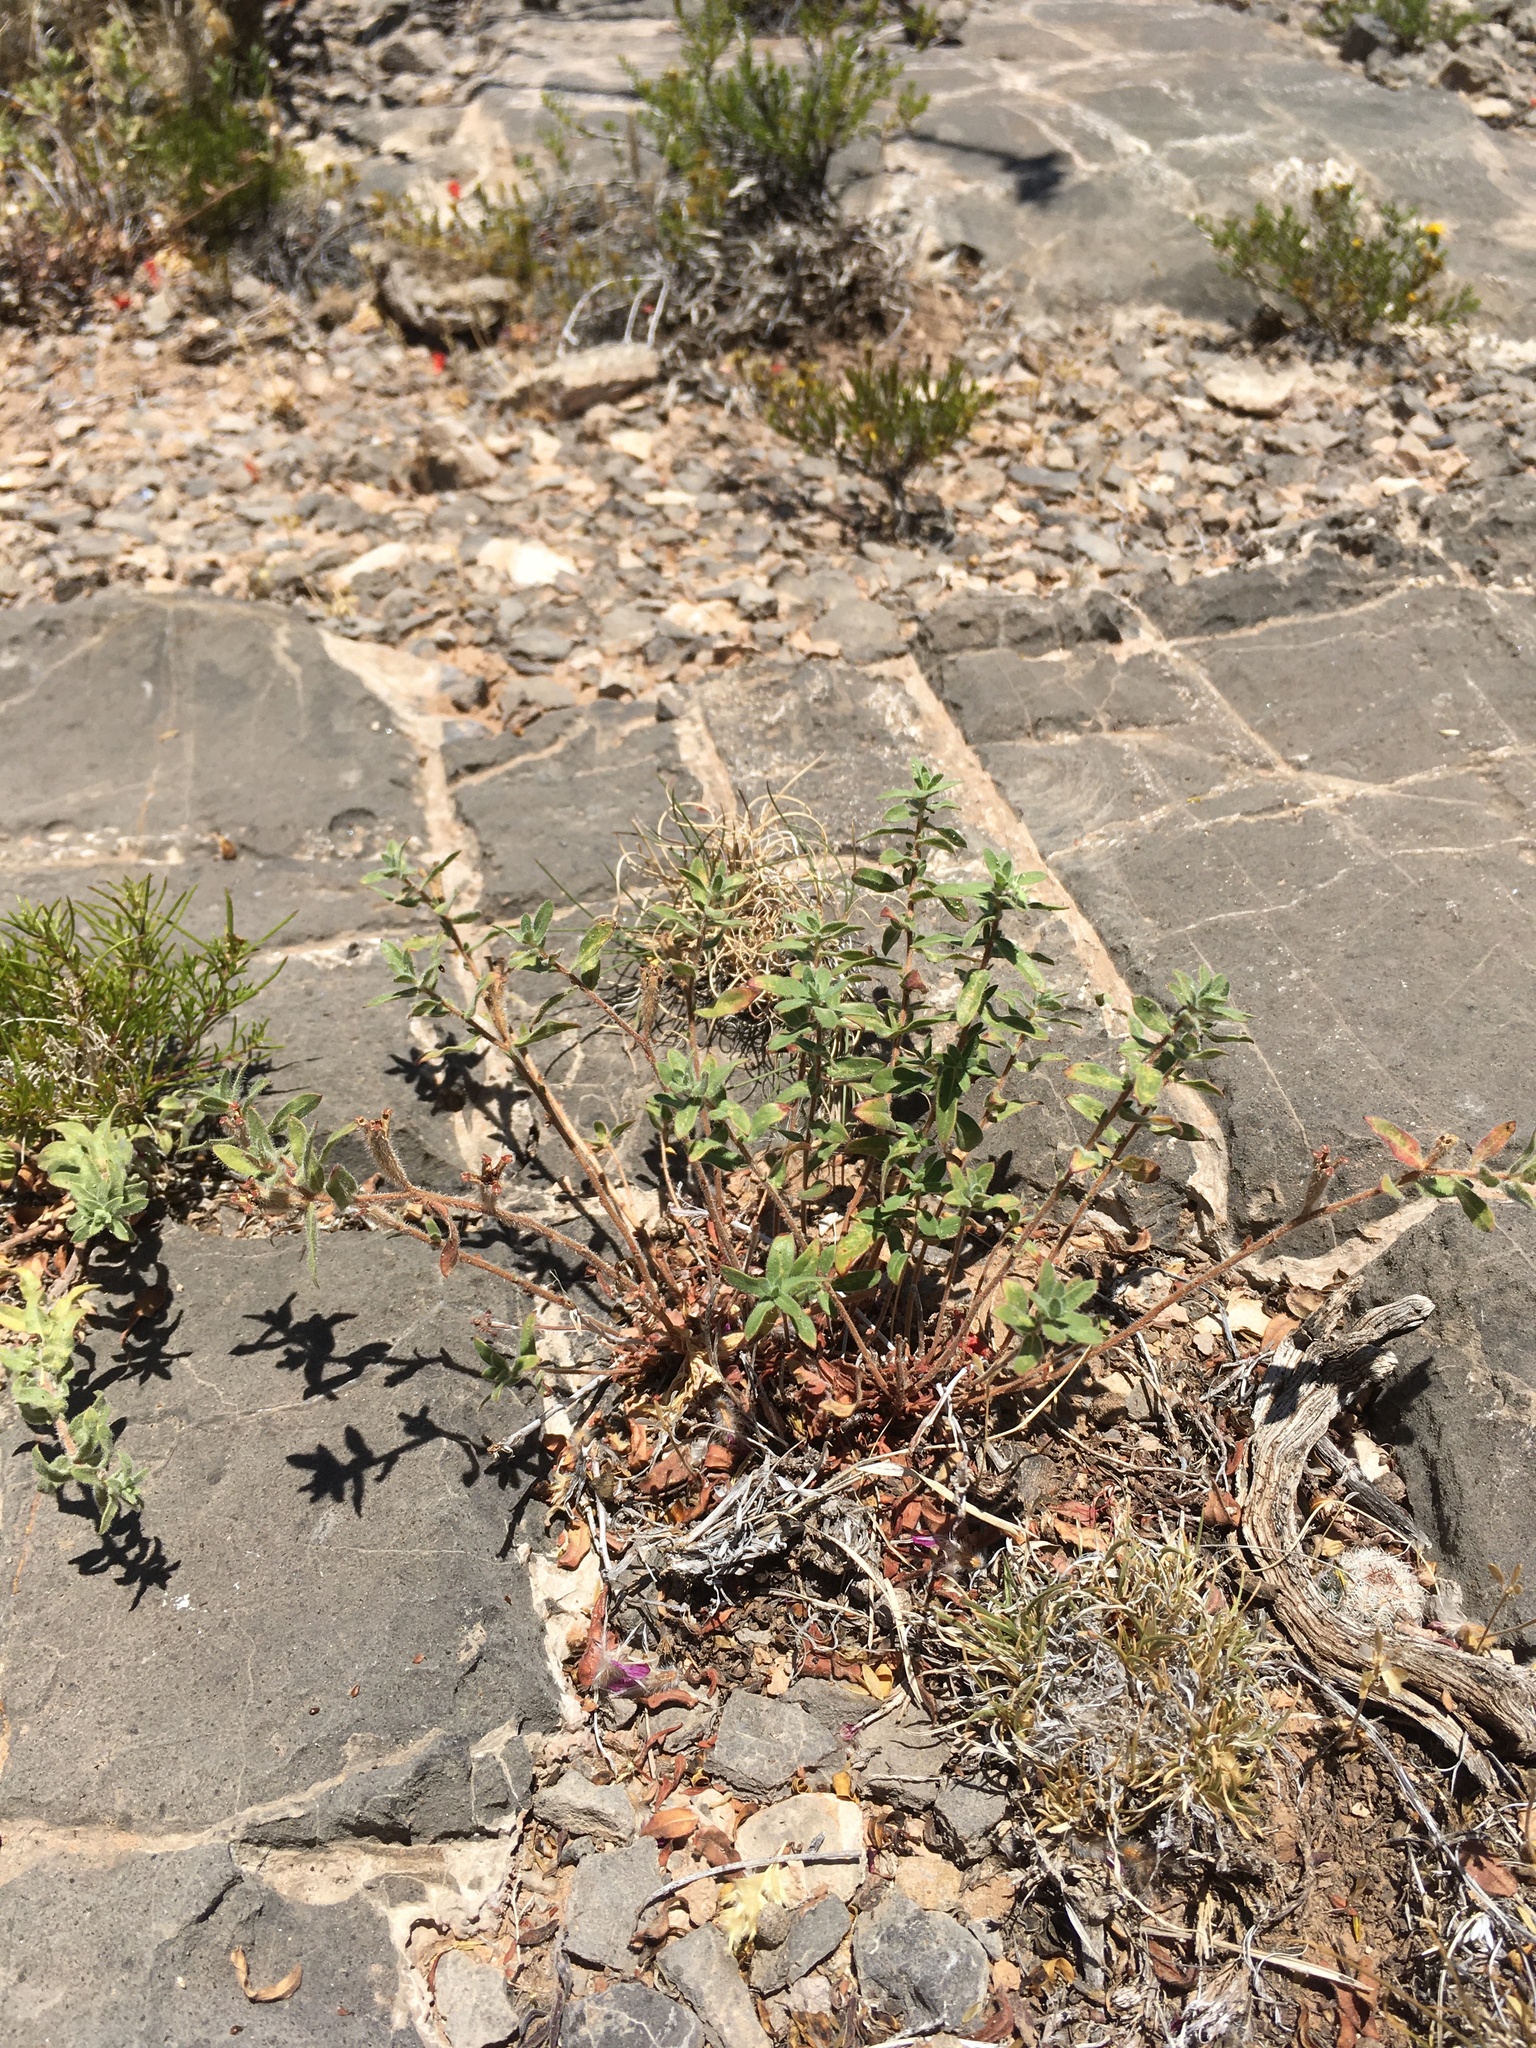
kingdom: Plantae
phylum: Tracheophyta
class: Magnoliopsida
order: Myrtales
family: Onagraceae
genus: Oenothera
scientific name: Oenothera hartwegii
